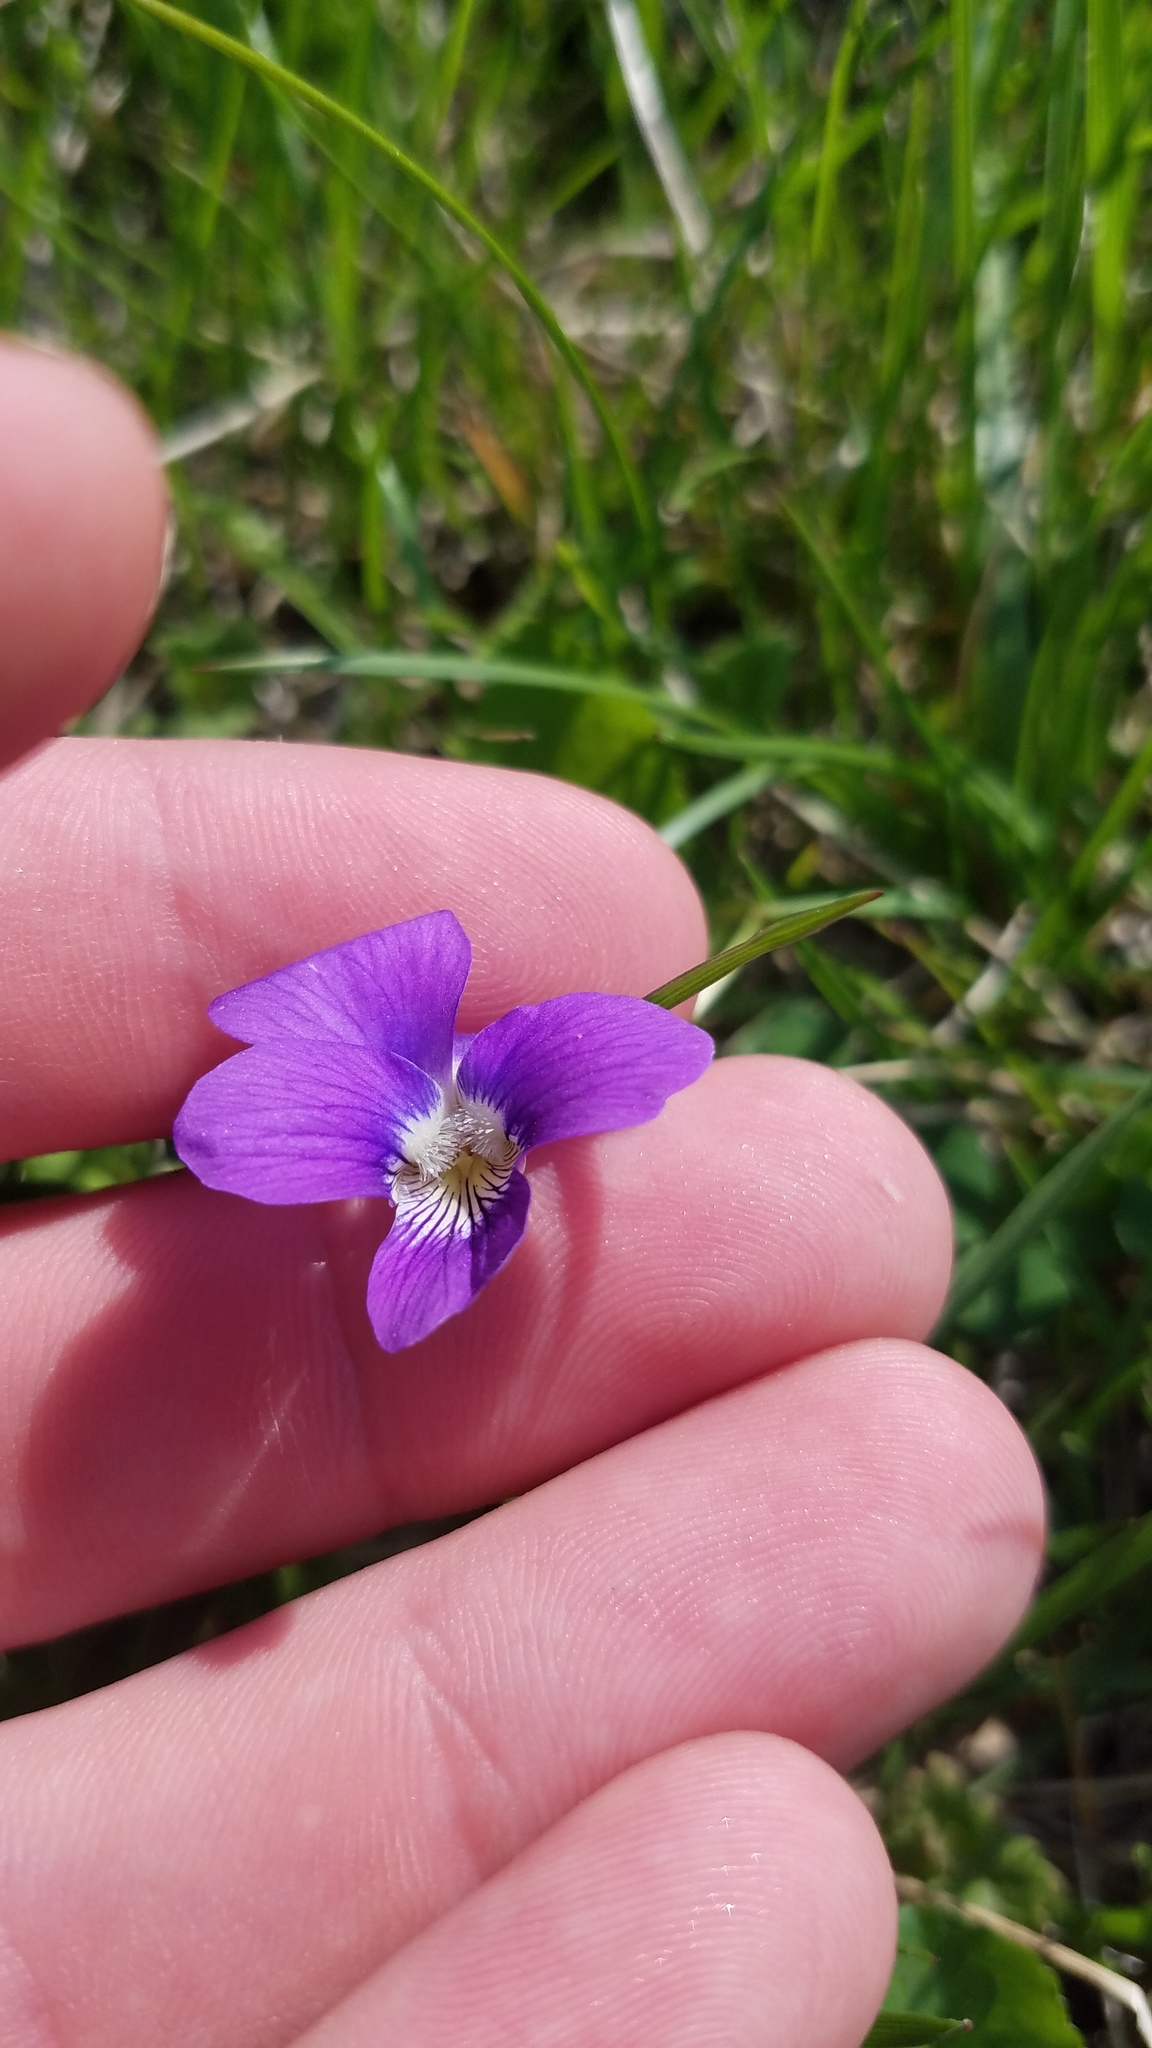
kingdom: Plantae
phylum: Tracheophyta
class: Magnoliopsida
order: Malpighiales
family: Violaceae
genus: Viola
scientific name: Viola sororia
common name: Dooryard violet
